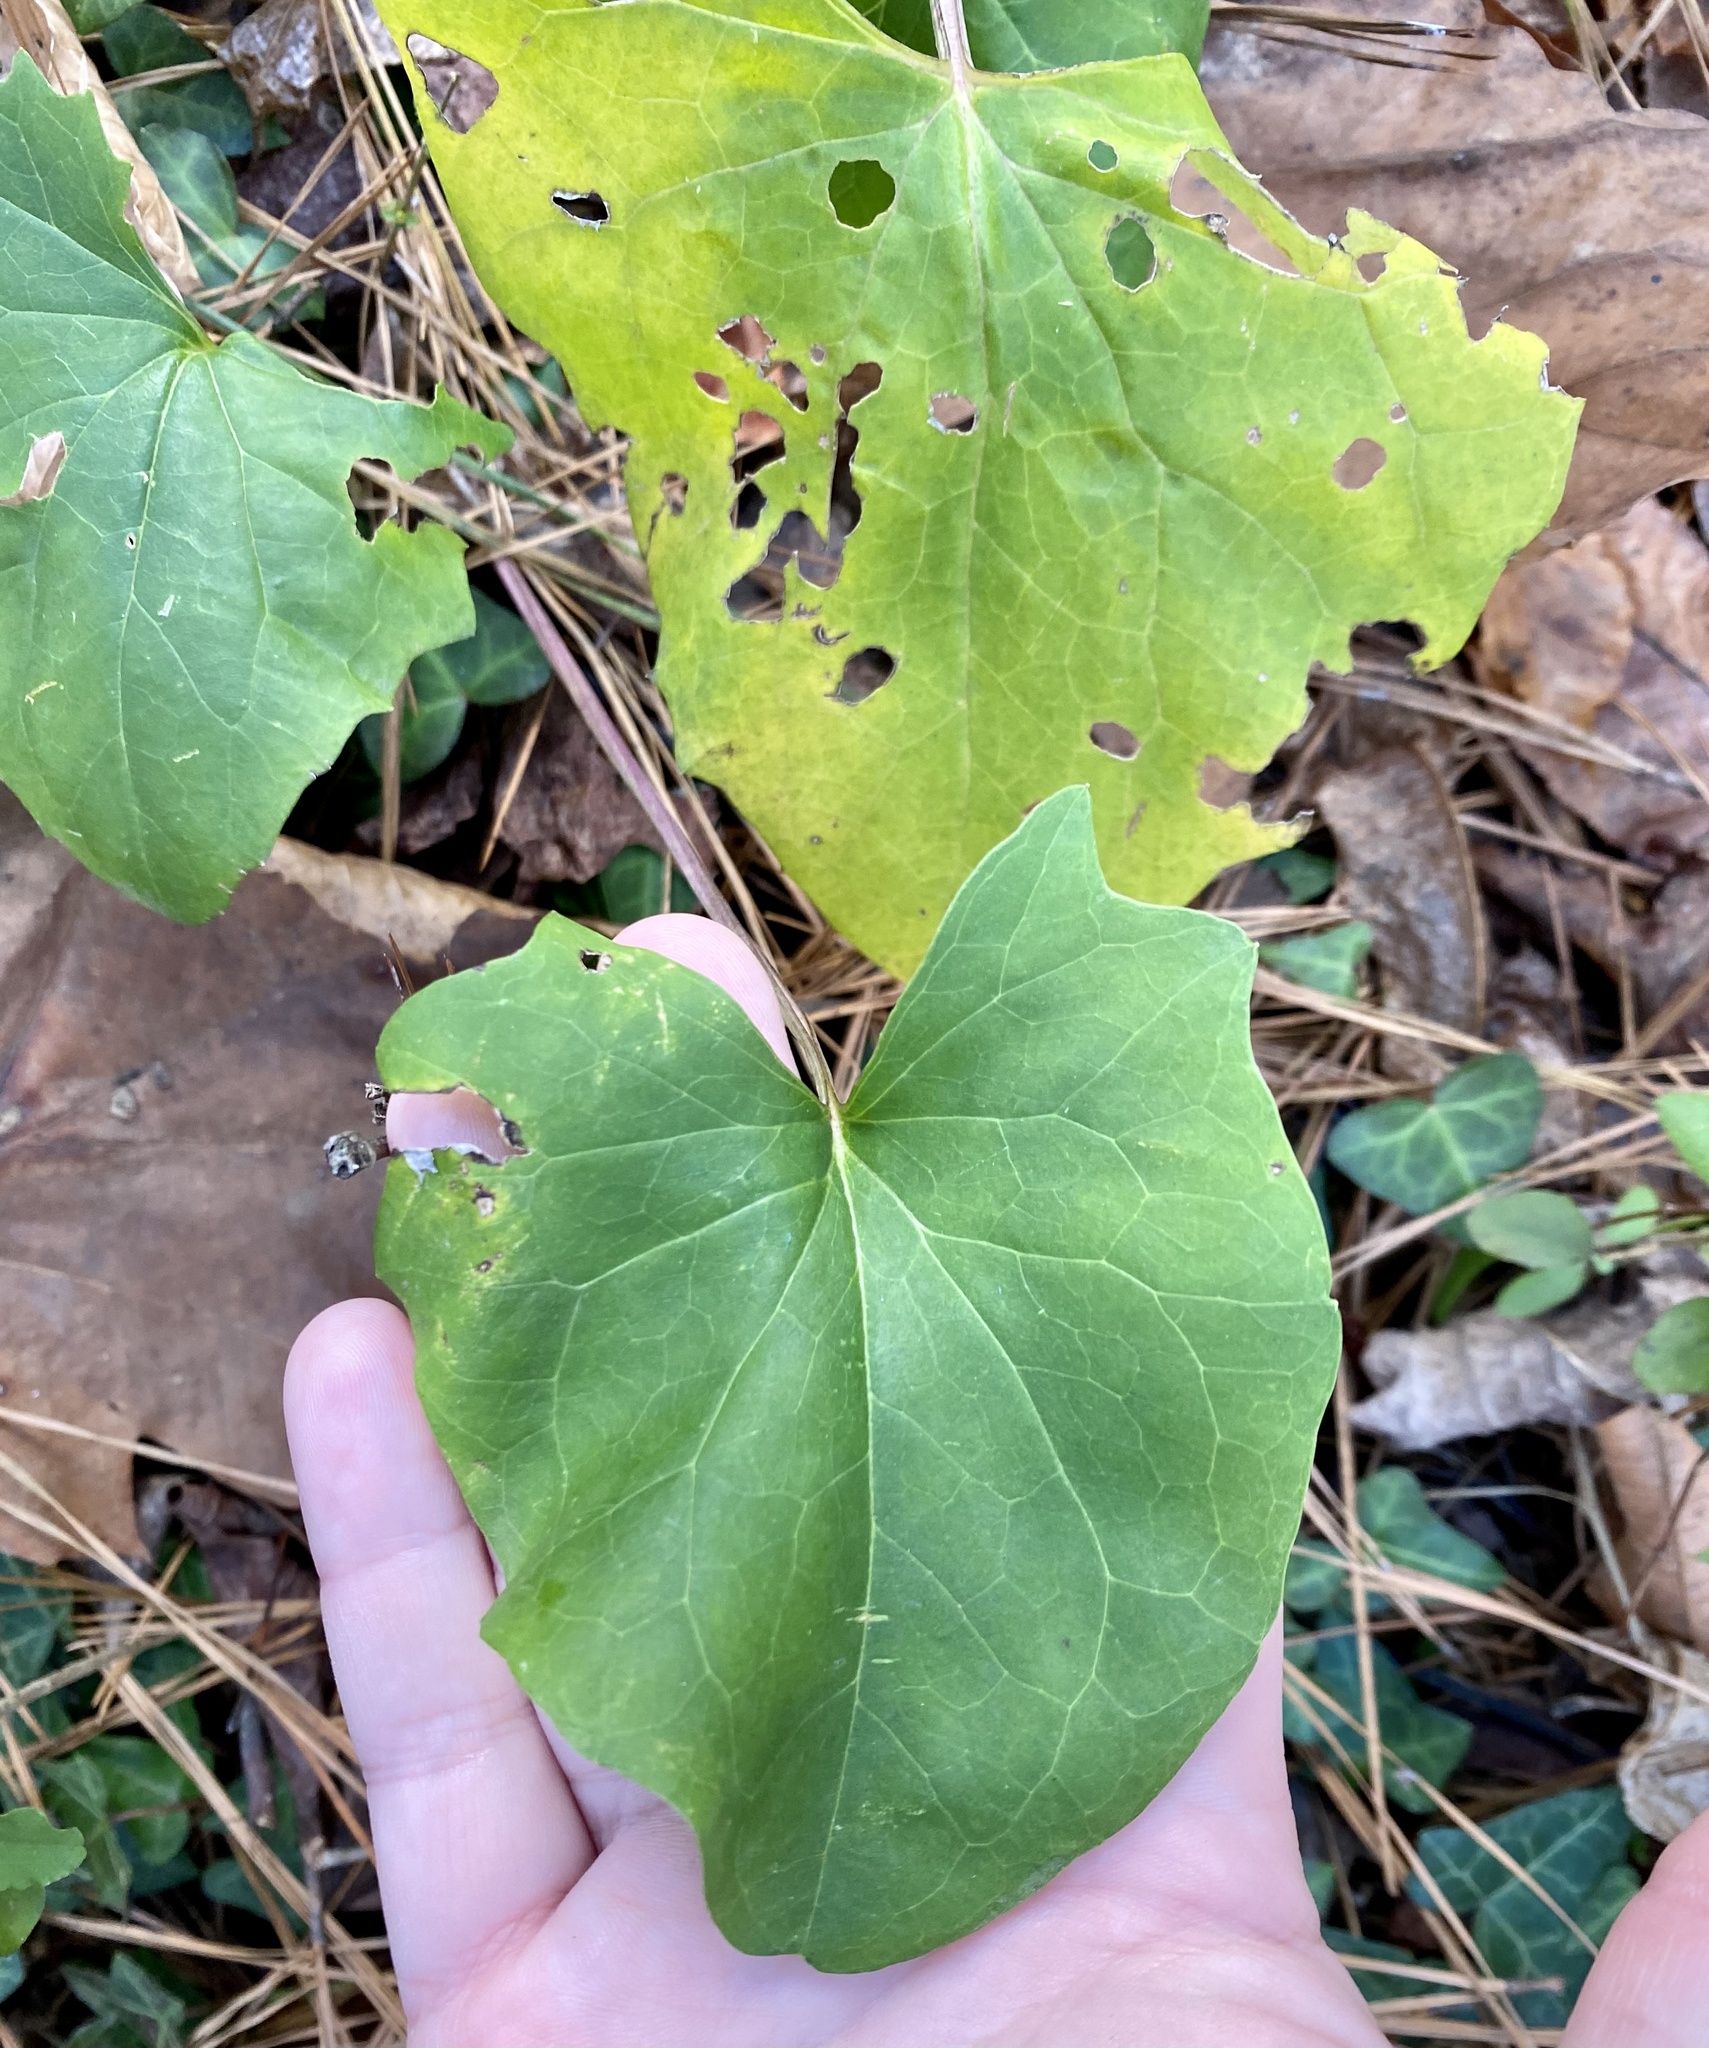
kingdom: Plantae
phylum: Tracheophyta
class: Magnoliopsida
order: Asterales
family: Asteraceae
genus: Arnoglossum
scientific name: Arnoglossum atriplicifolium
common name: Pale indian-plantain
